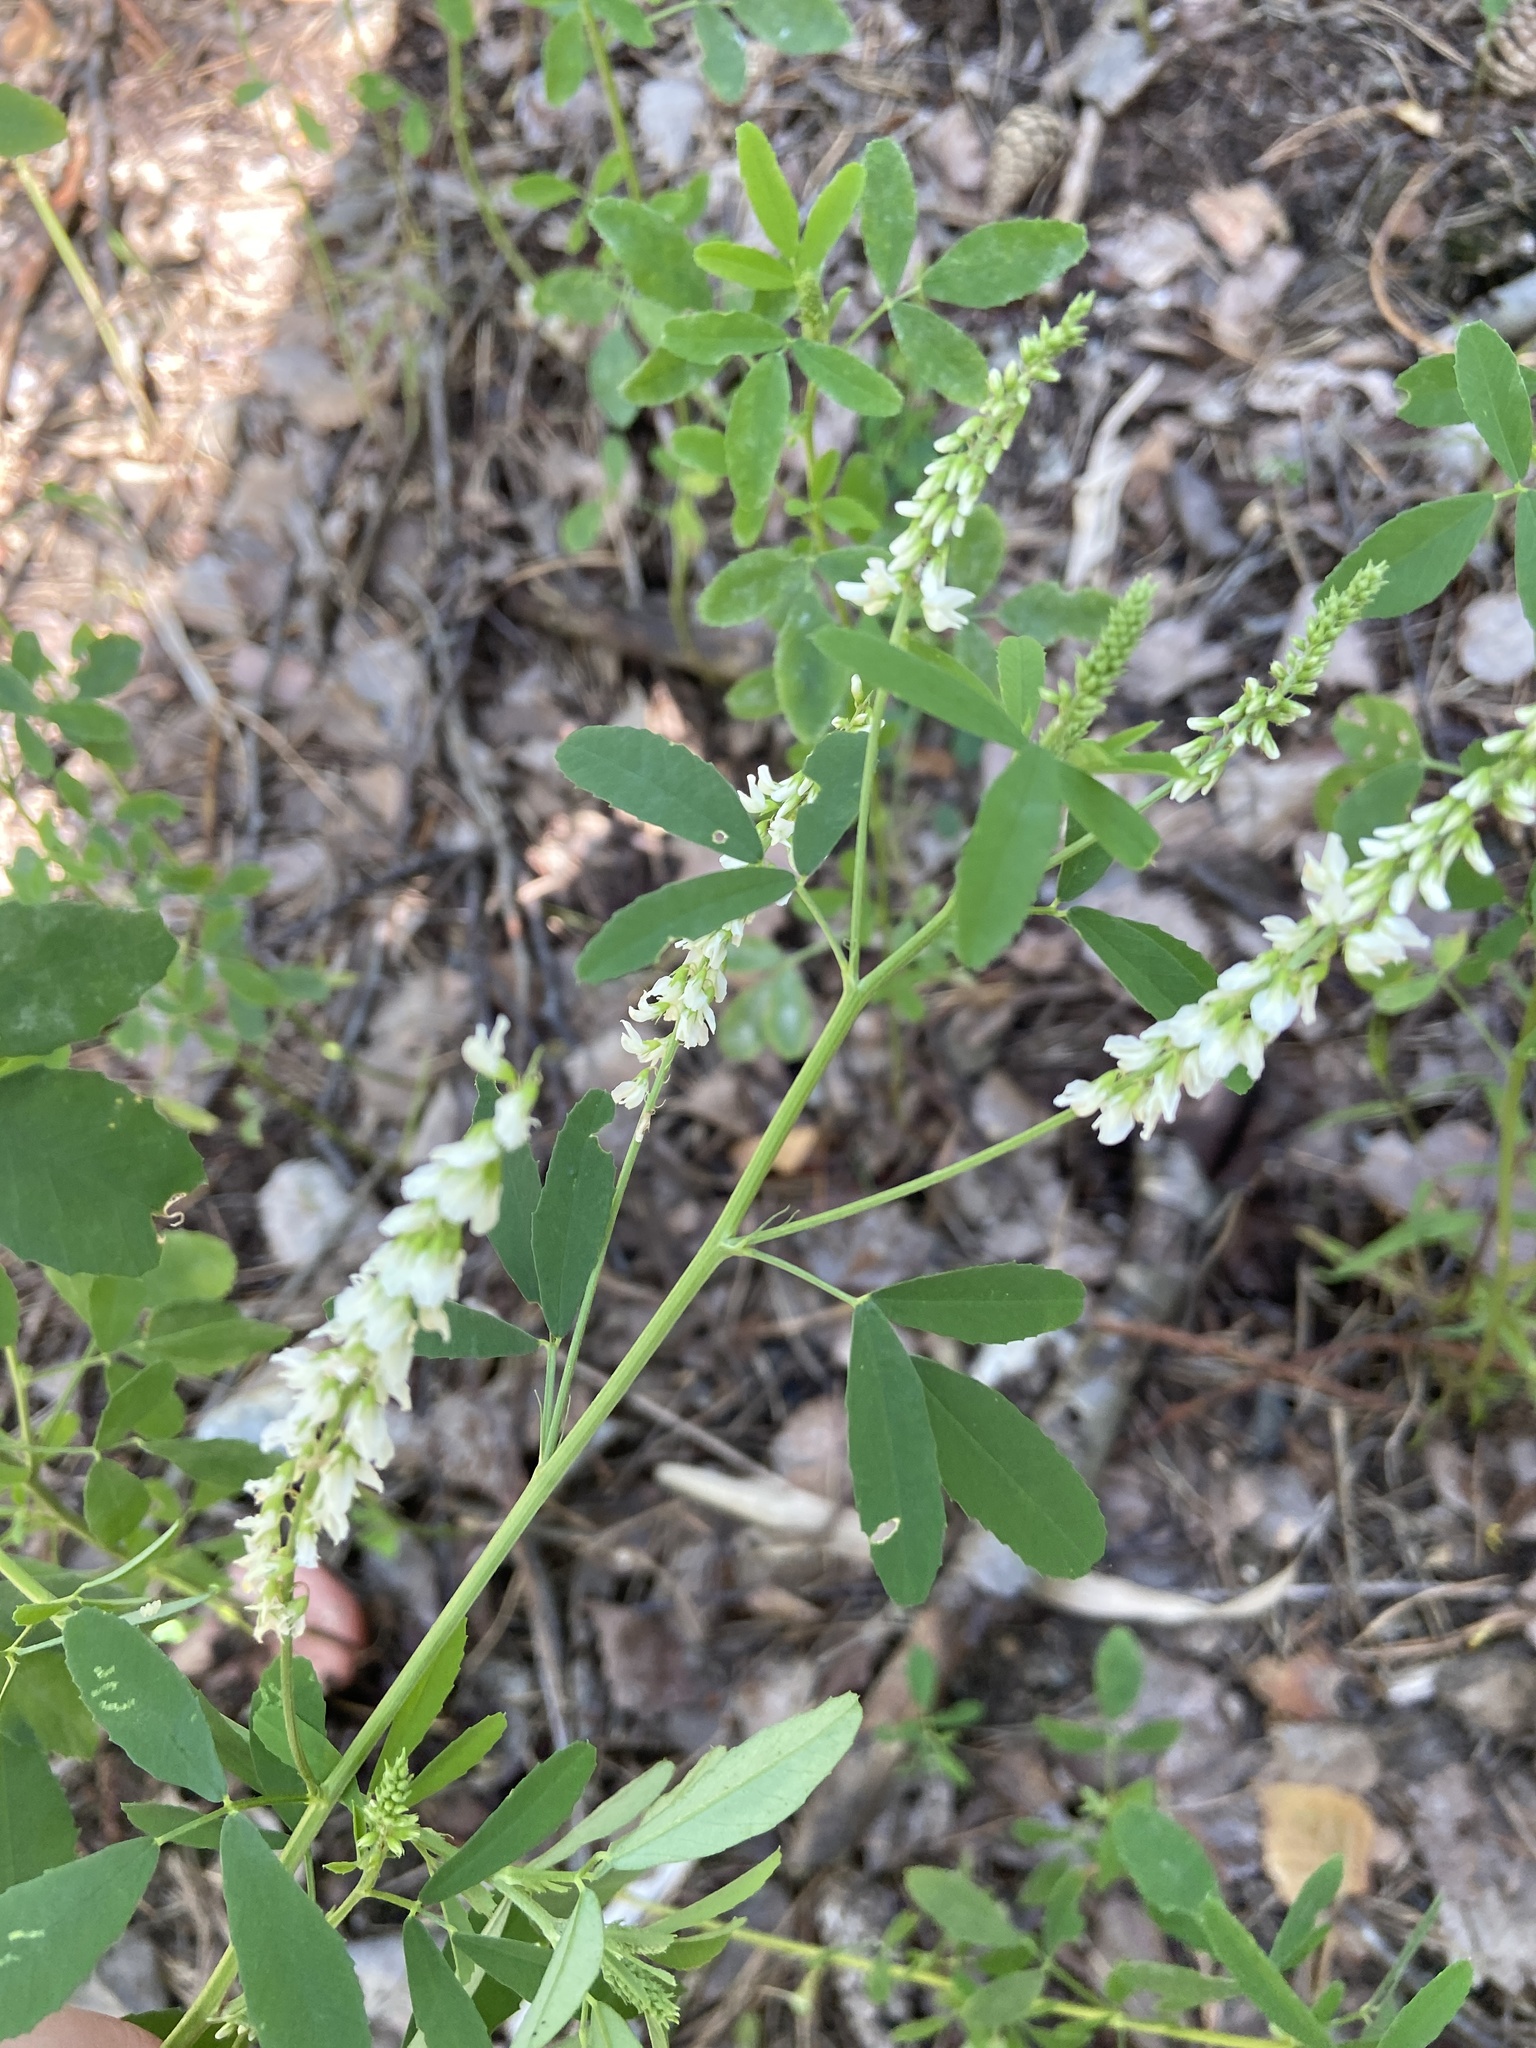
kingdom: Plantae
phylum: Tracheophyta
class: Magnoliopsida
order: Fabales
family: Fabaceae
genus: Melilotus
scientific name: Melilotus albus
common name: White melilot
